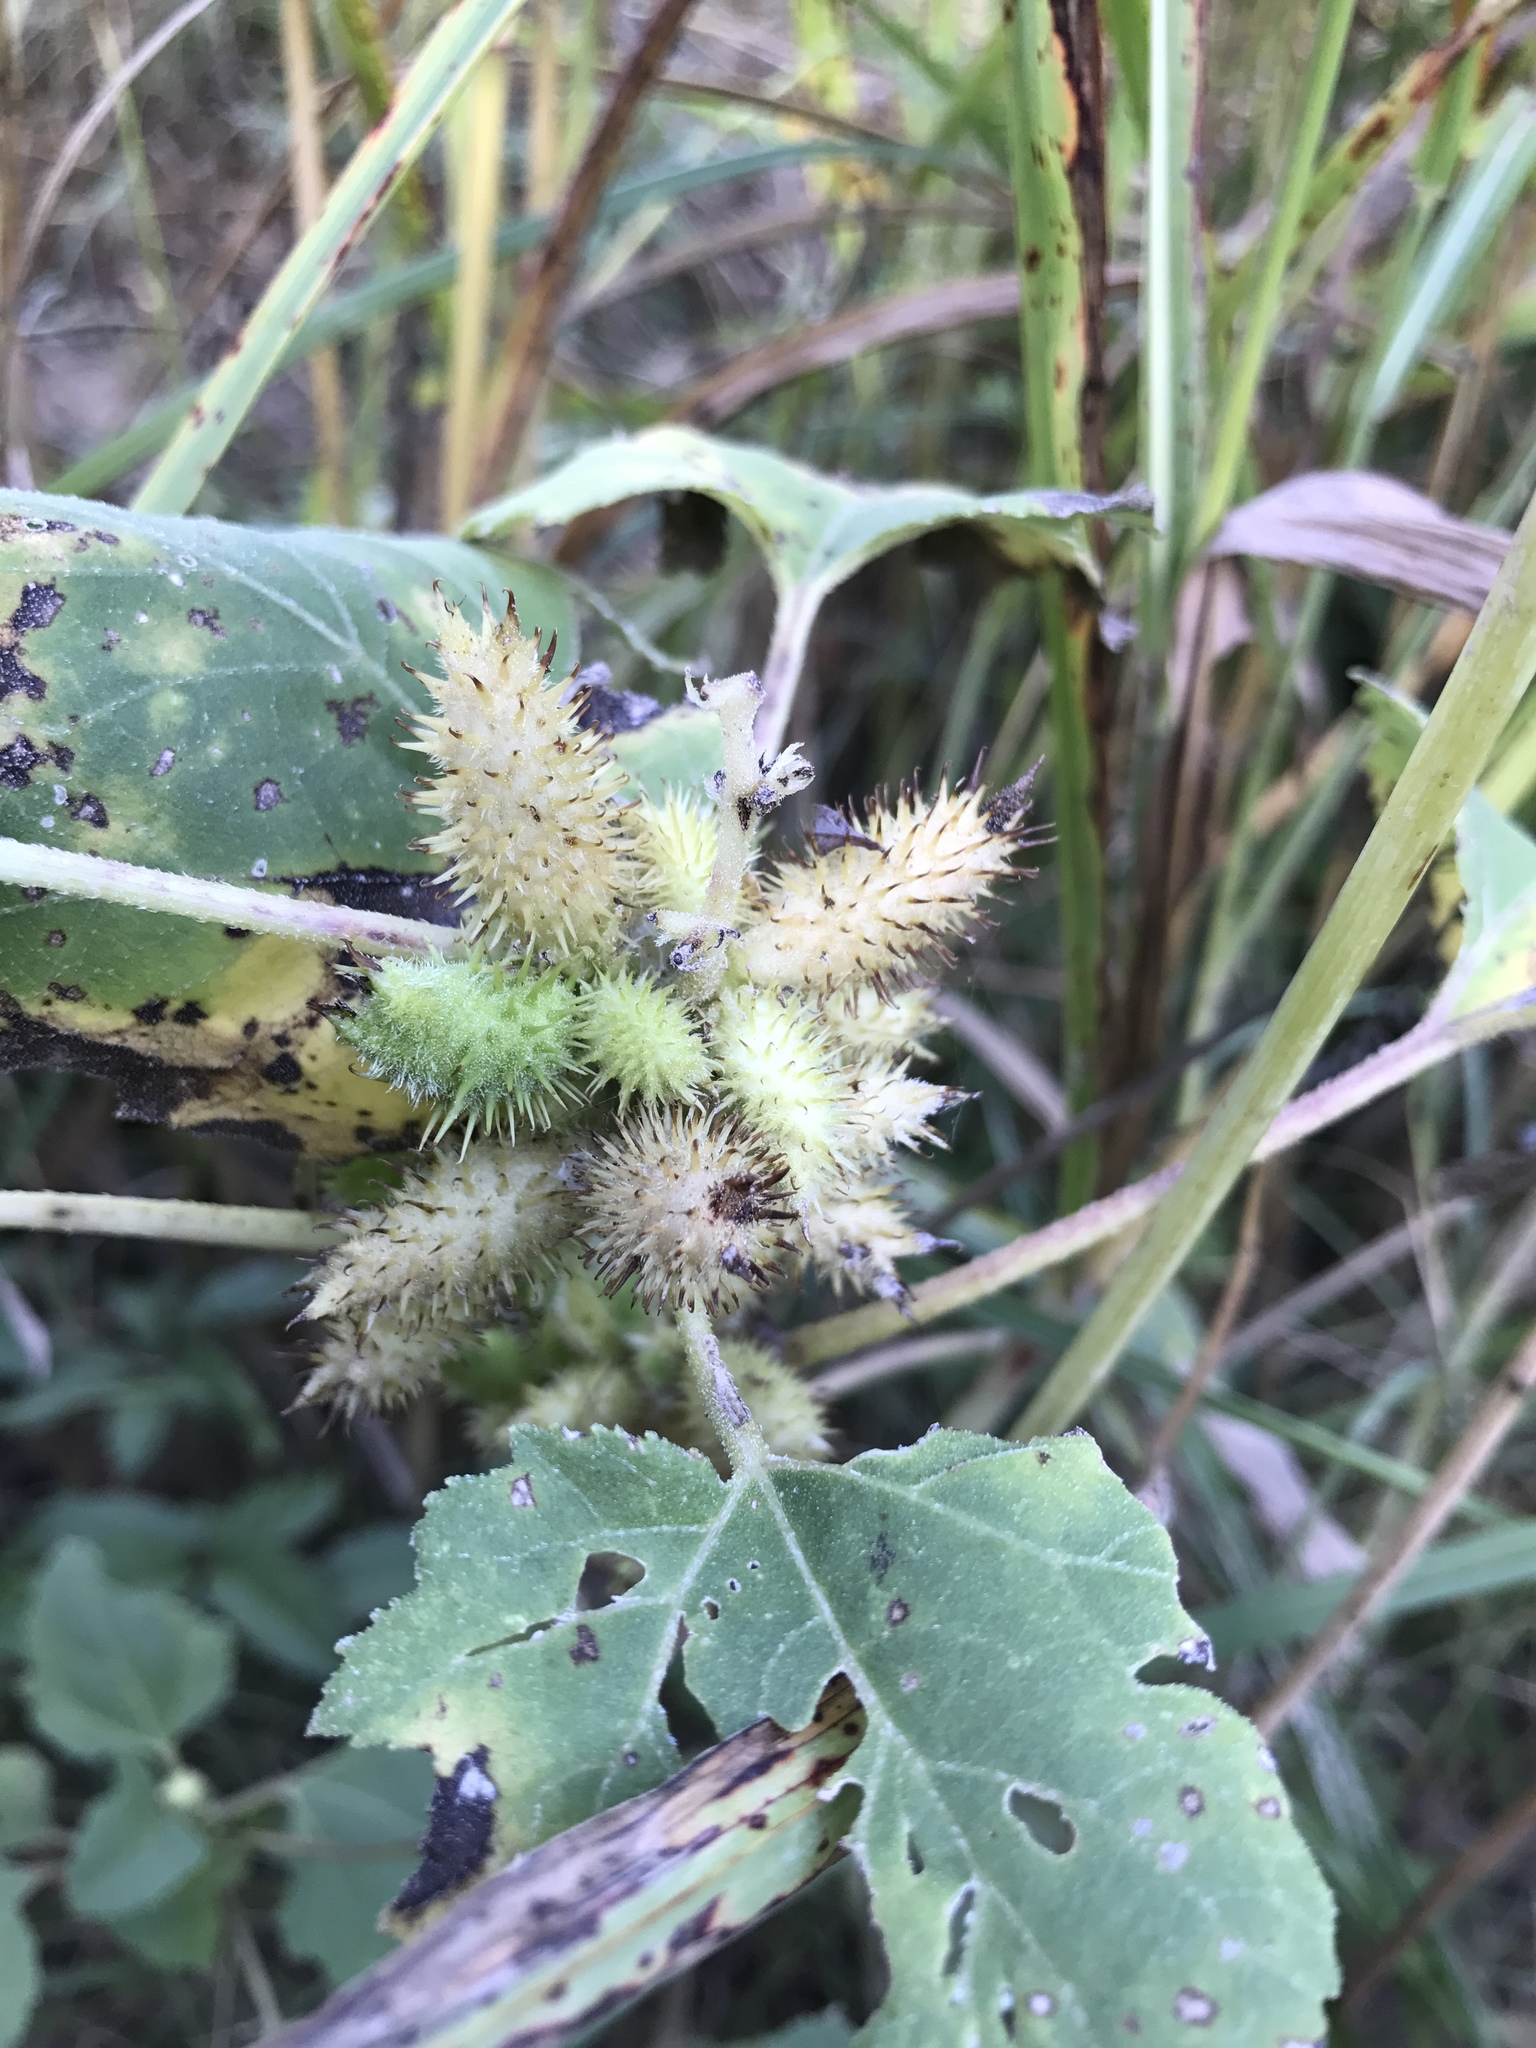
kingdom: Plantae
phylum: Tracheophyta
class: Magnoliopsida
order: Asterales
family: Asteraceae
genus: Xanthium
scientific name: Xanthium strumarium
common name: Rough cocklebur
